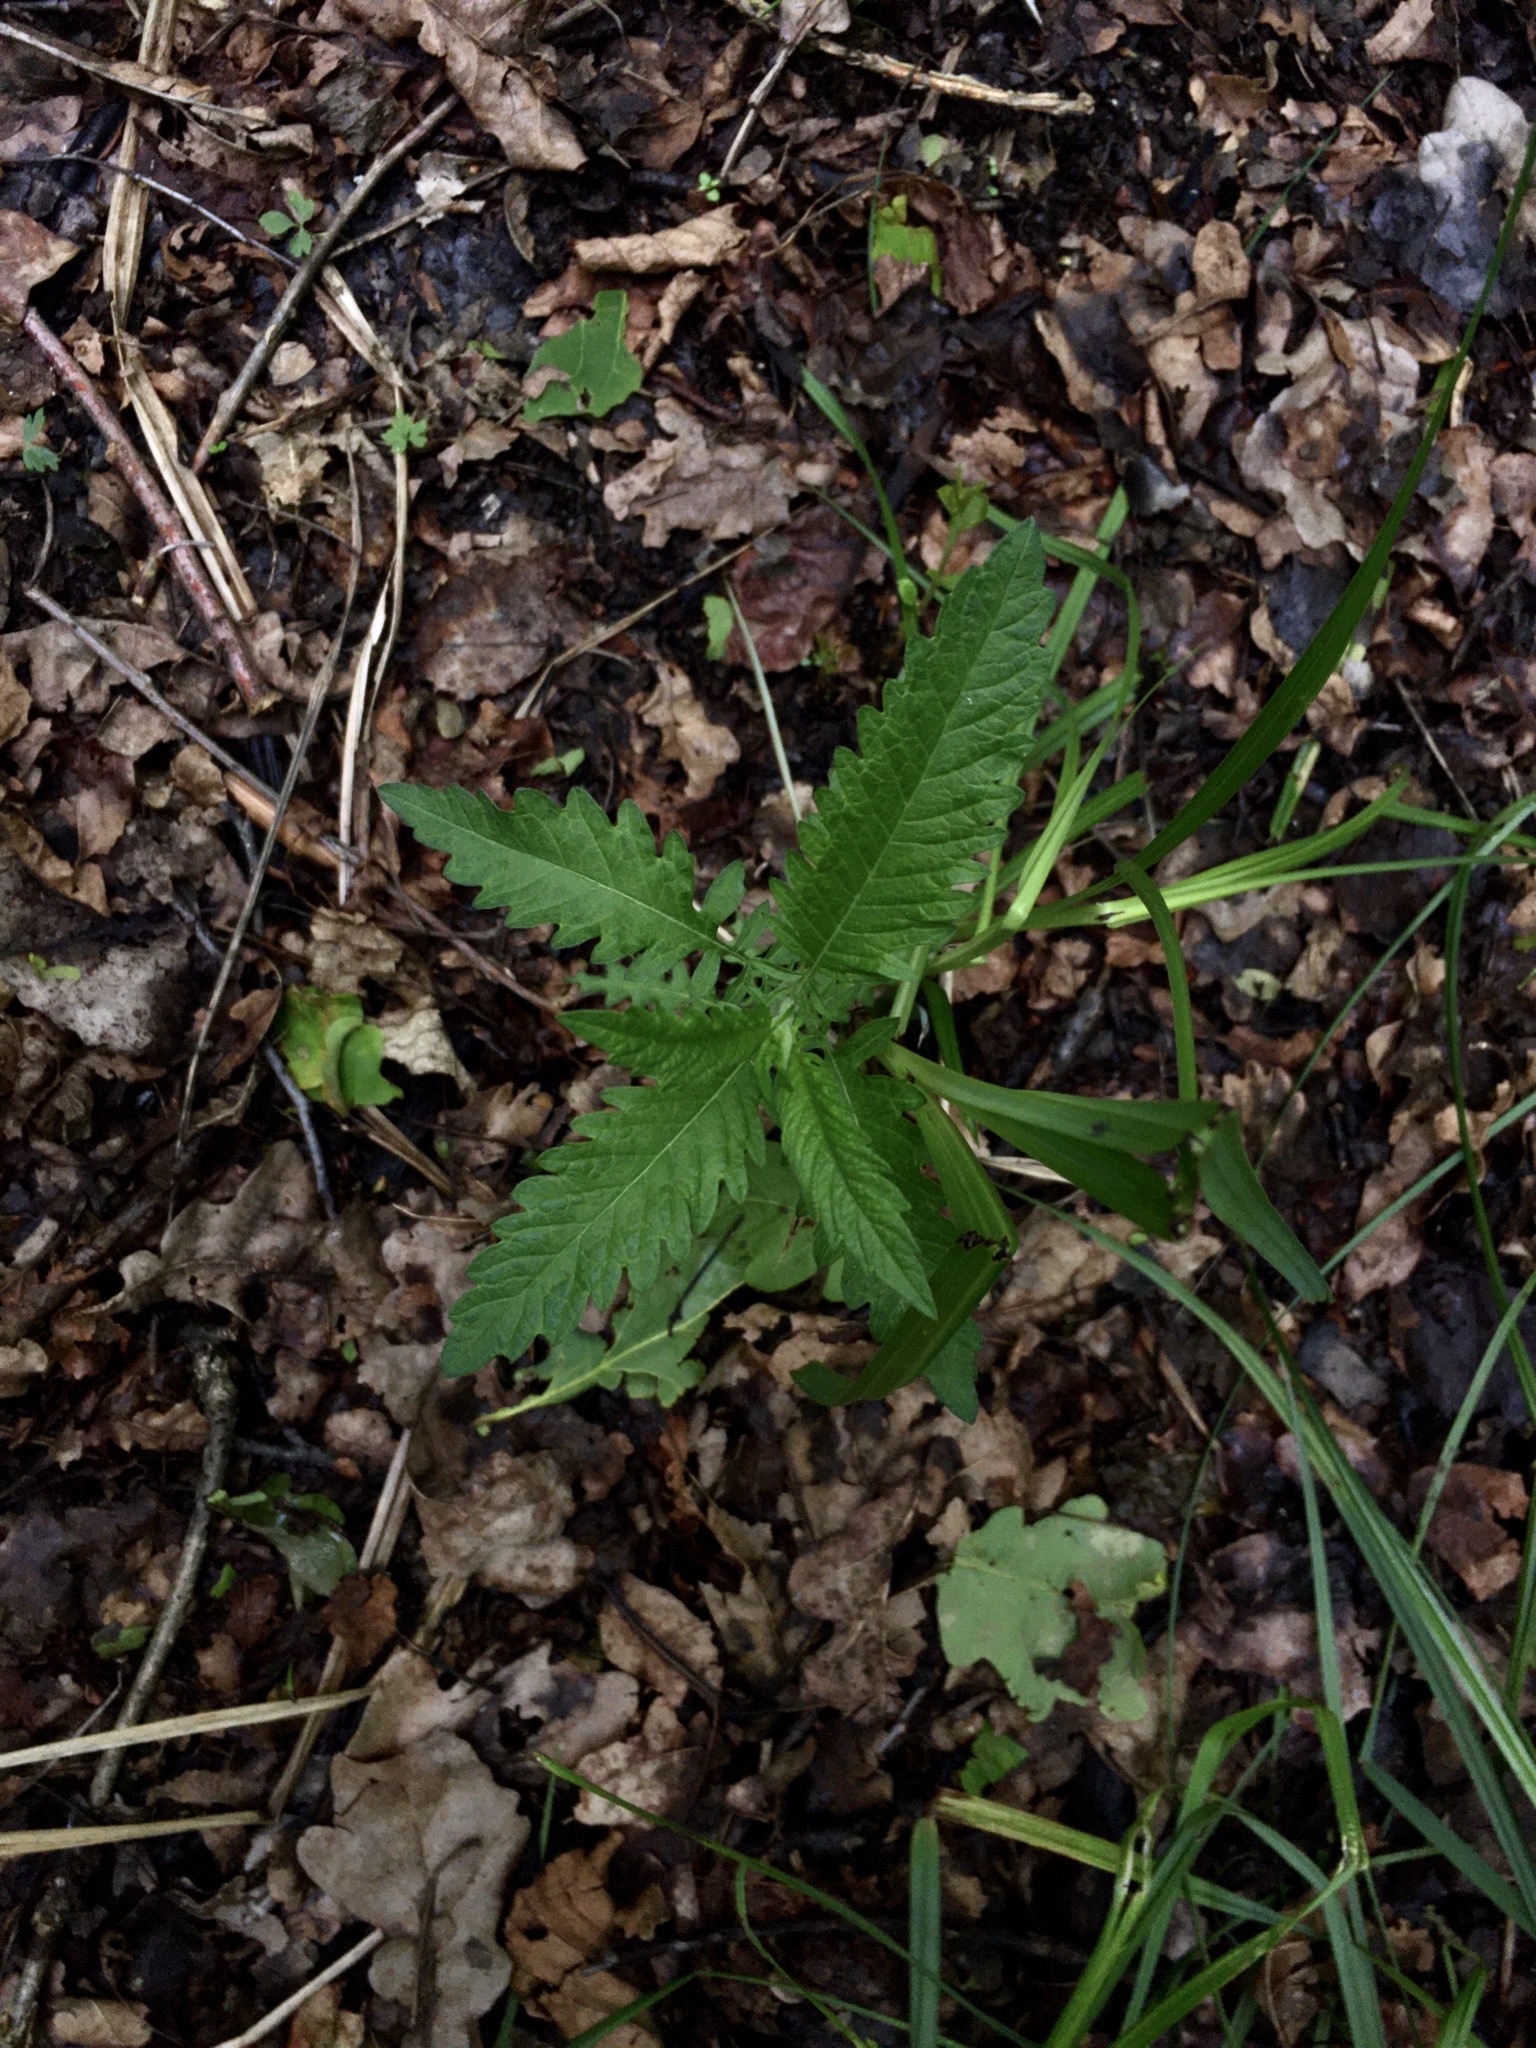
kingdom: Plantae
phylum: Tracheophyta
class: Magnoliopsida
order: Lamiales
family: Lamiaceae
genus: Lycopus
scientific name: Lycopus europaeus
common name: European bugleweed
